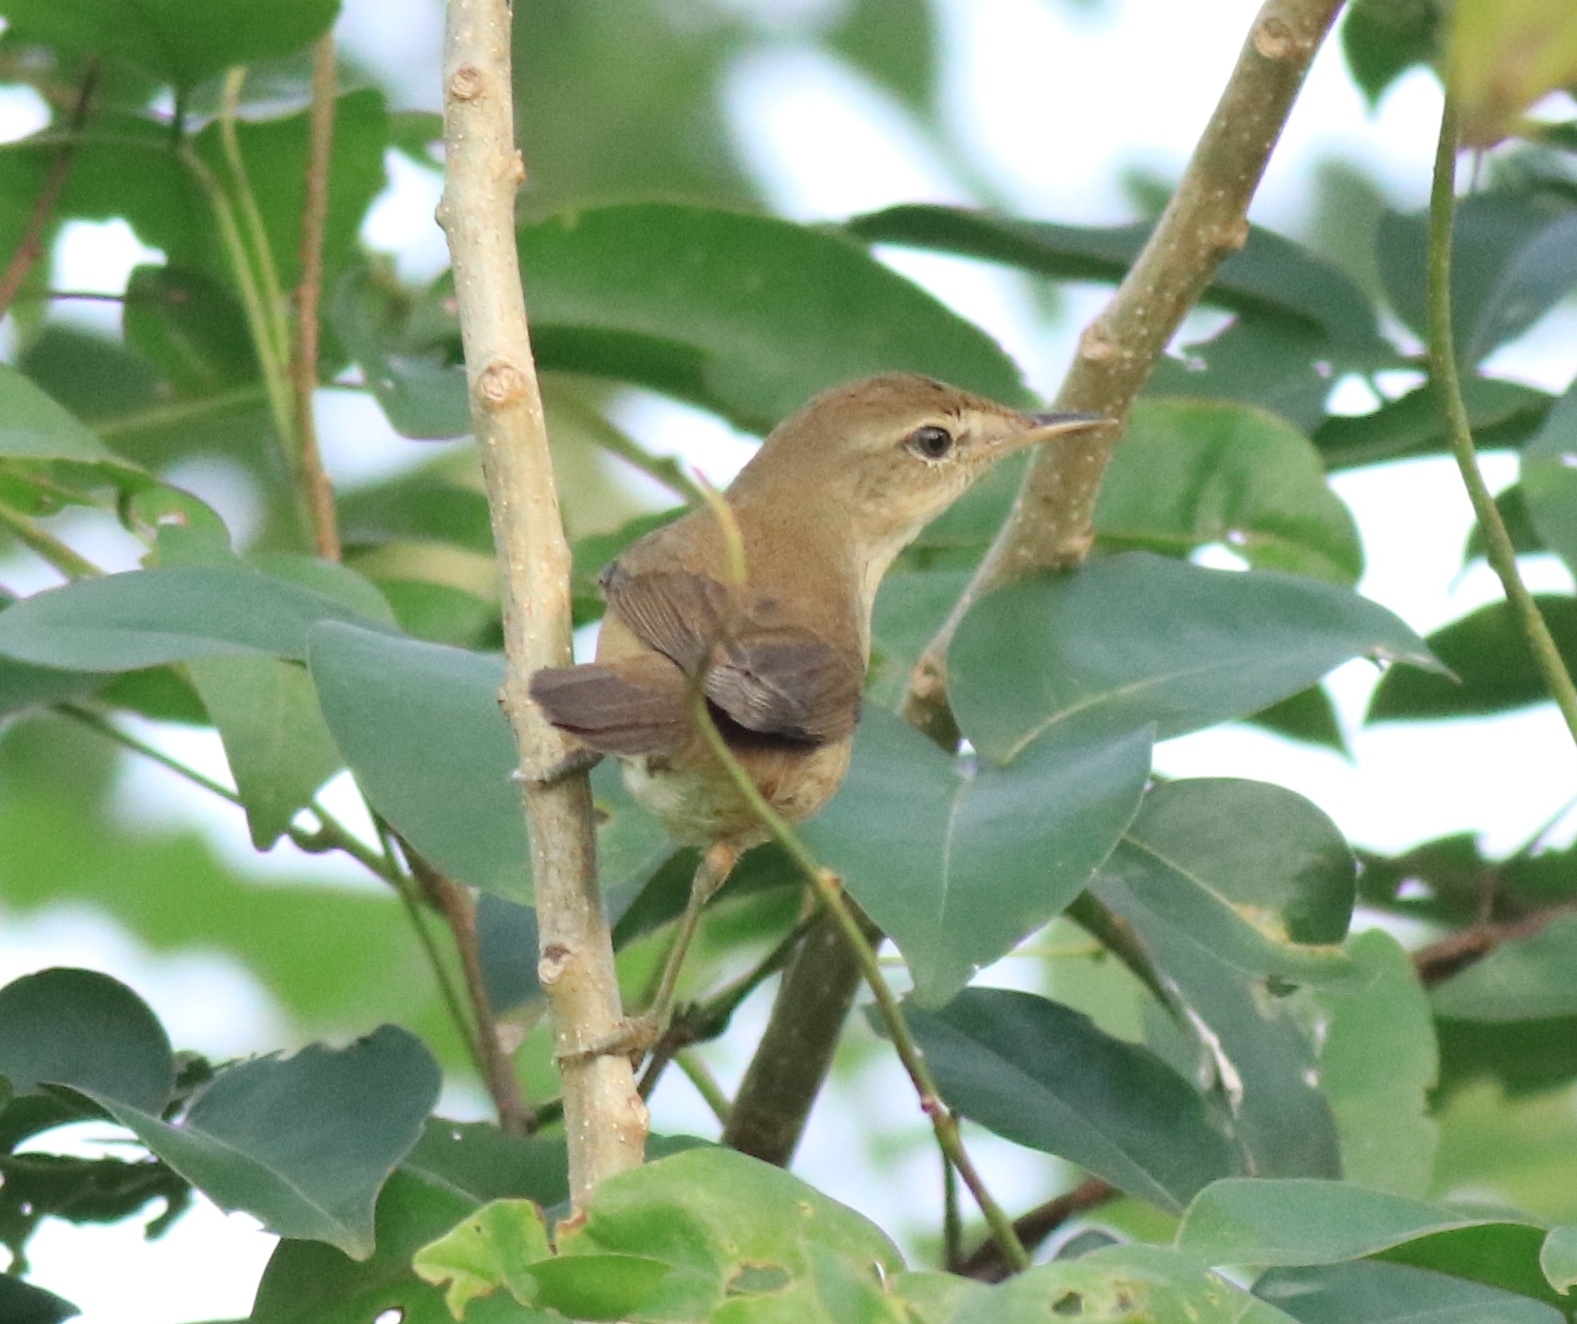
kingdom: Animalia
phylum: Chordata
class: Aves
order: Passeriformes
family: Acrocephalidae
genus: Acrocephalus
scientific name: Acrocephalus dumetorum
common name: Blyth's reed warbler
